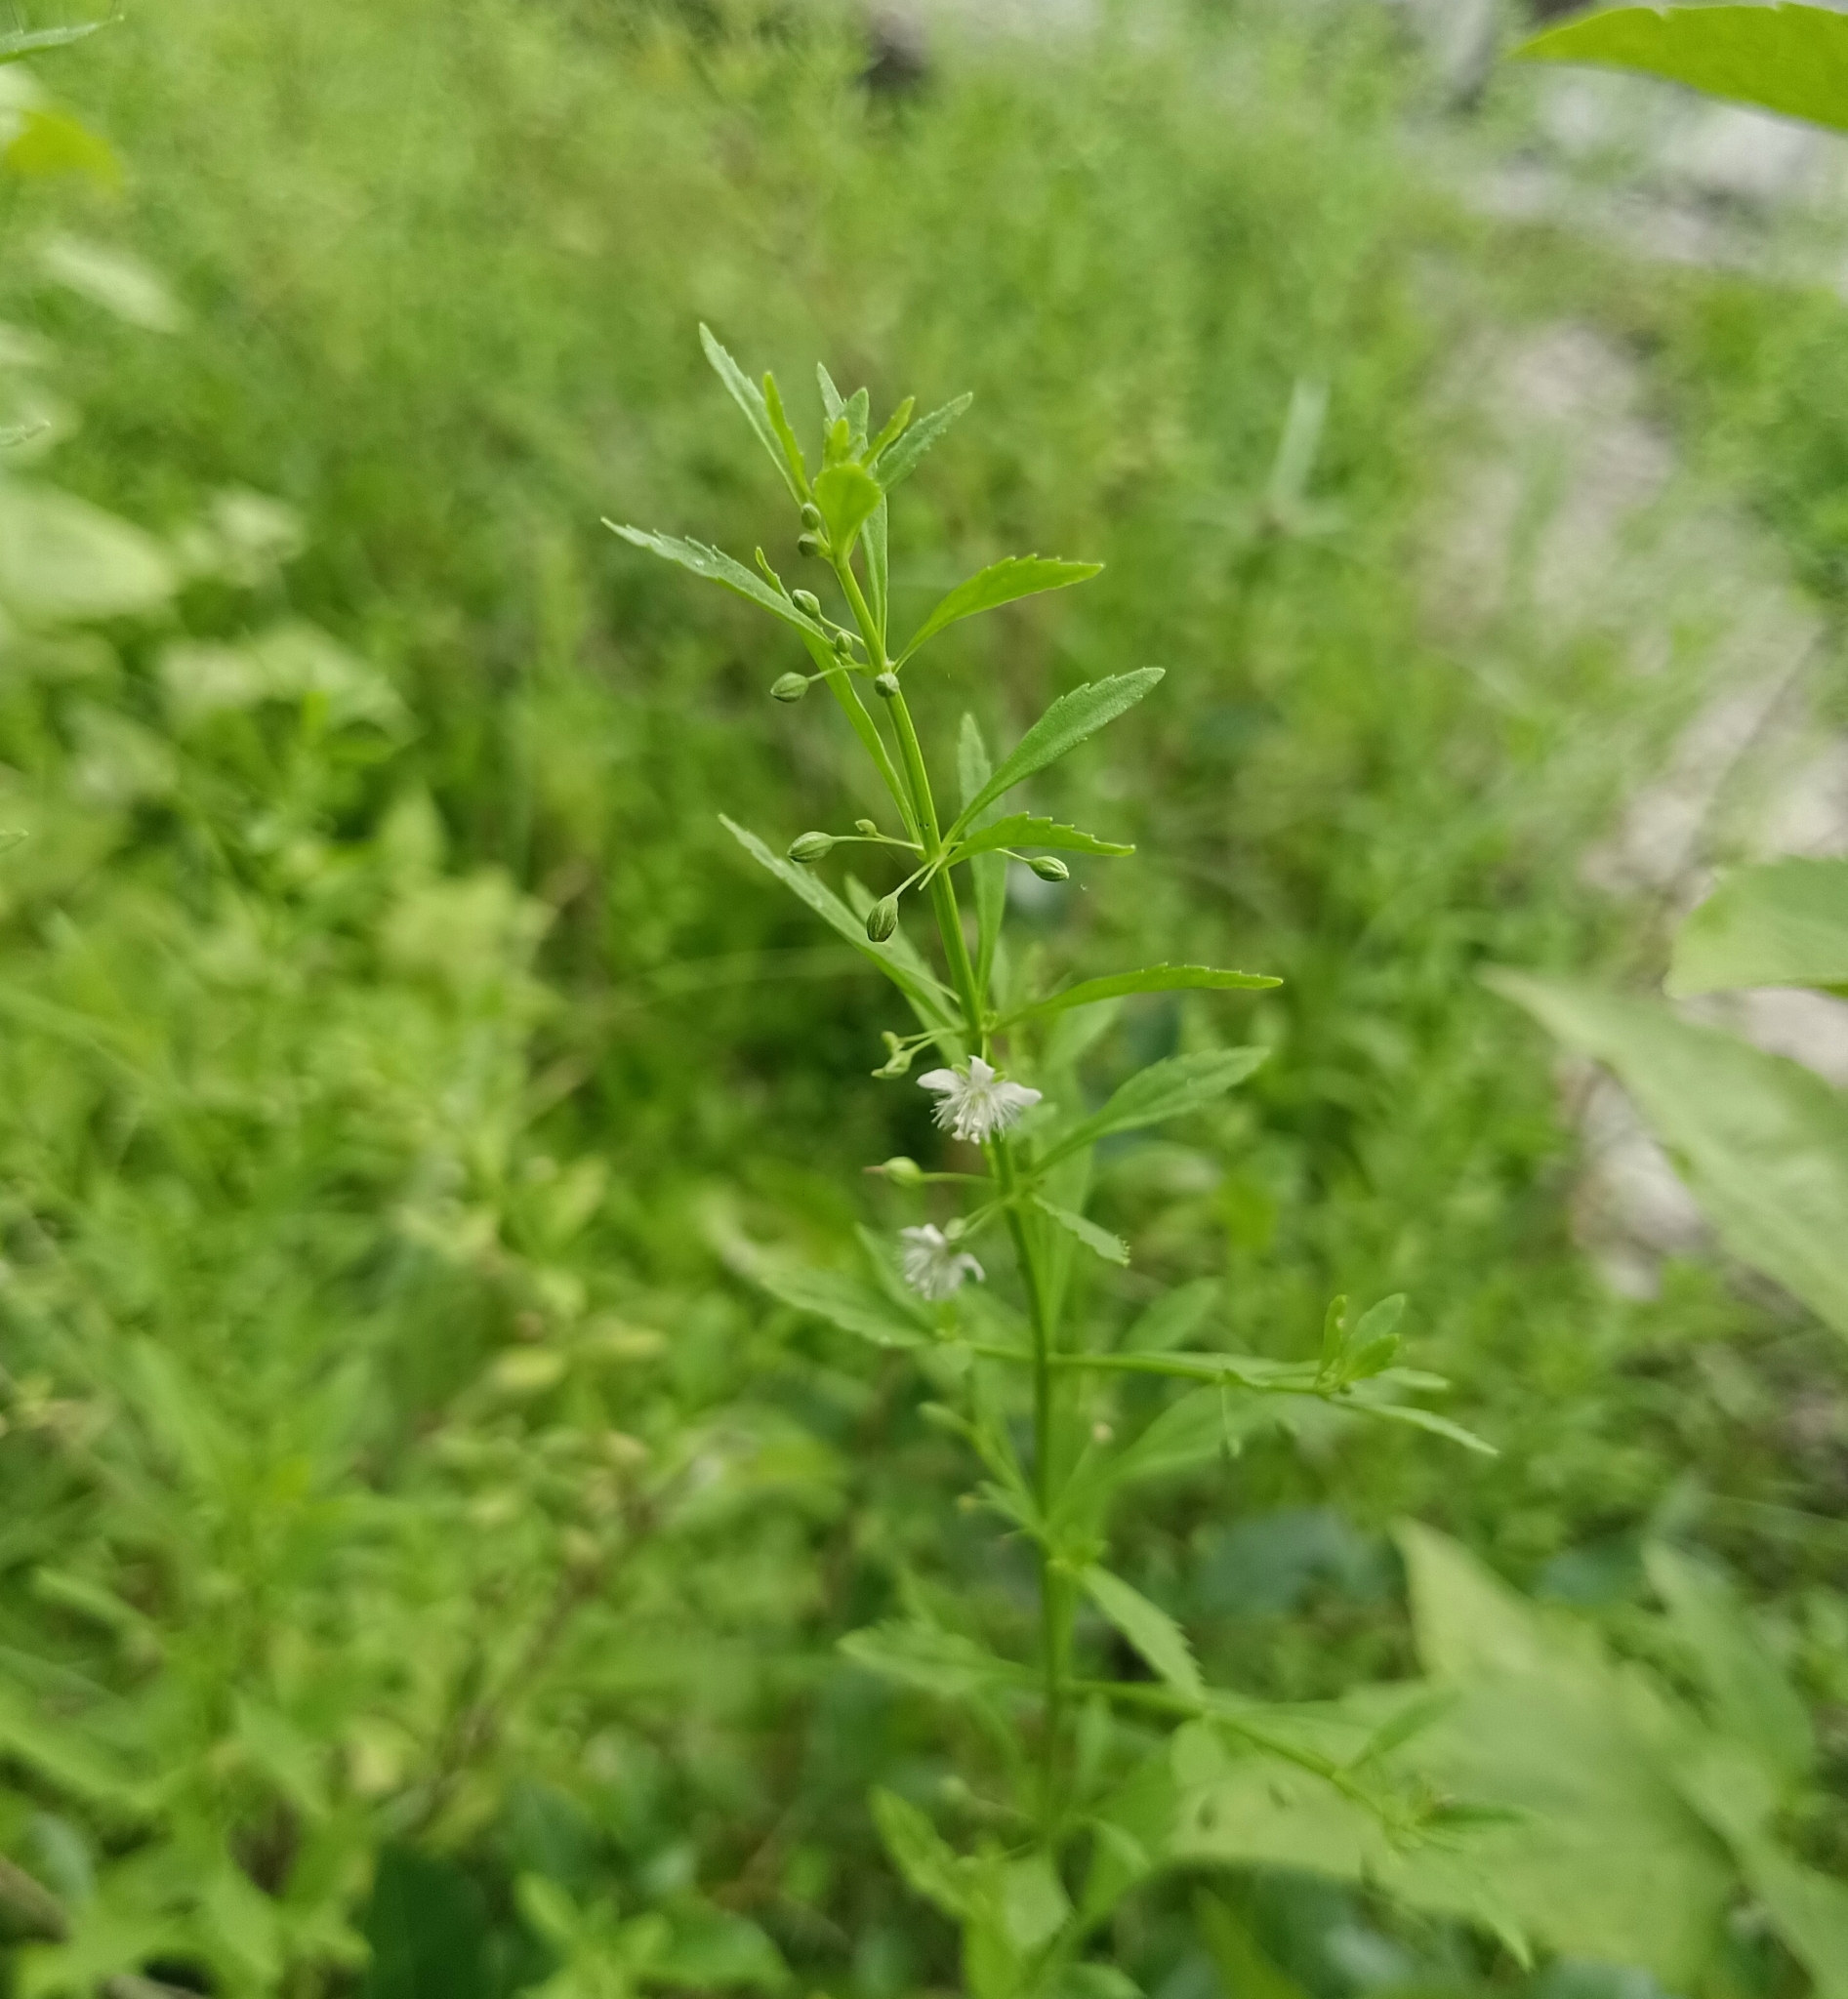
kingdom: Plantae
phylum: Tracheophyta
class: Magnoliopsida
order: Lamiales
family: Plantaginaceae
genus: Scoparia
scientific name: Scoparia dulcis
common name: Scoparia-weed
